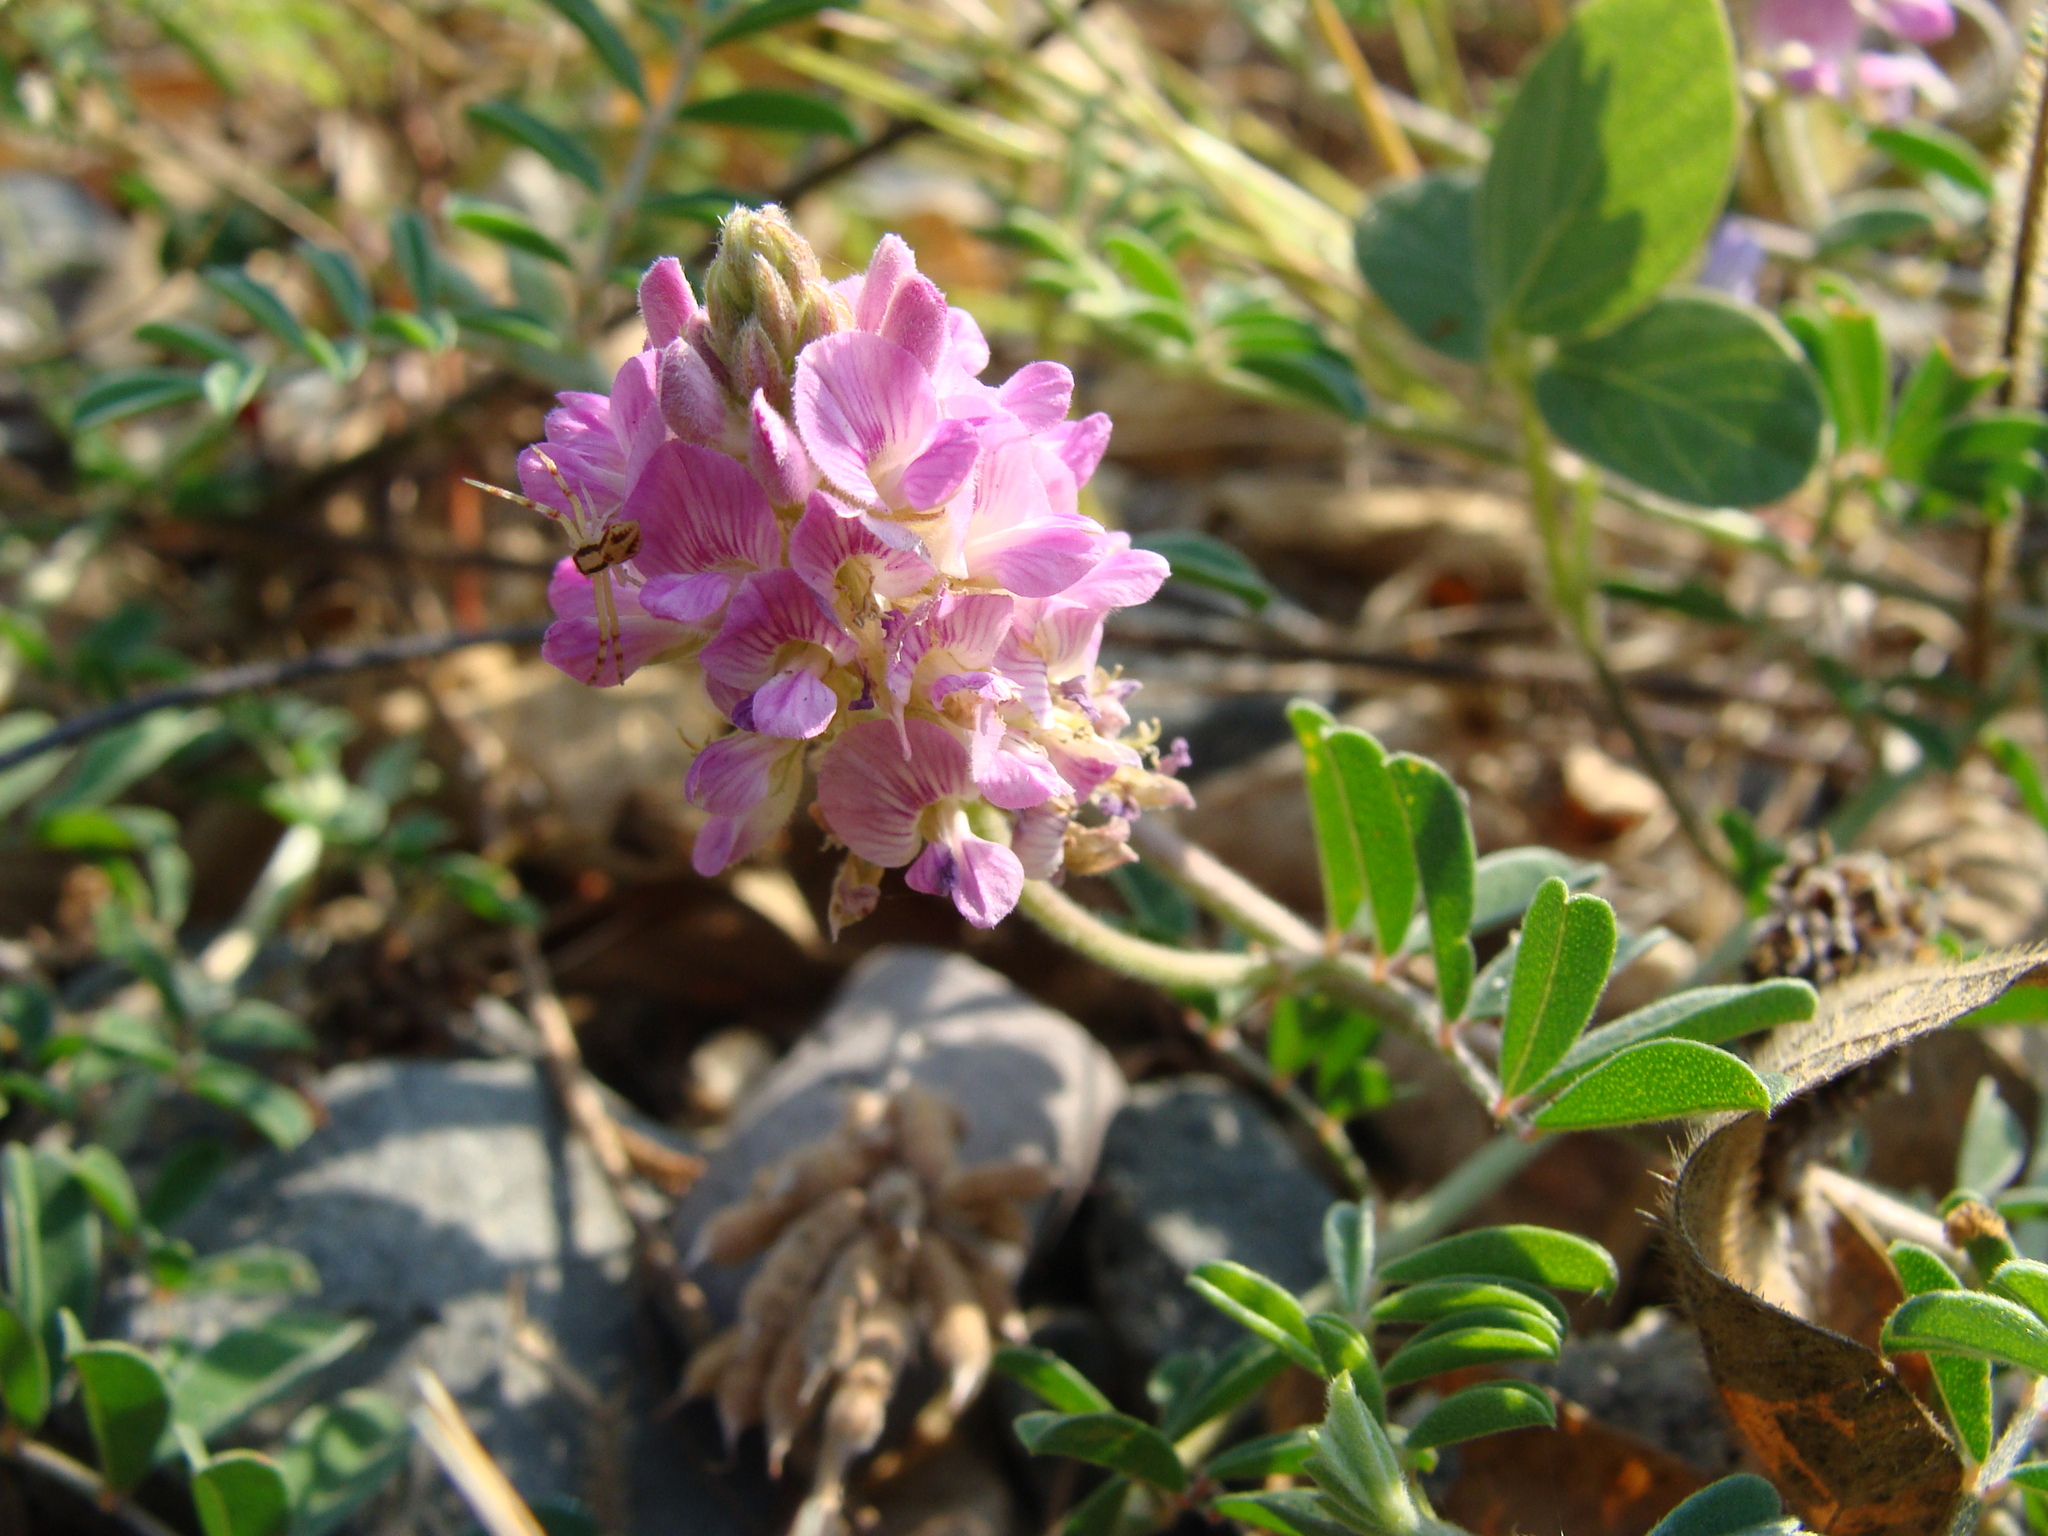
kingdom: Plantae
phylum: Tracheophyta
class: Magnoliopsida
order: Fabales
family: Fabaceae
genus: Tephrosia
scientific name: Tephrosia cinerea
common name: Ashen hoarypea
